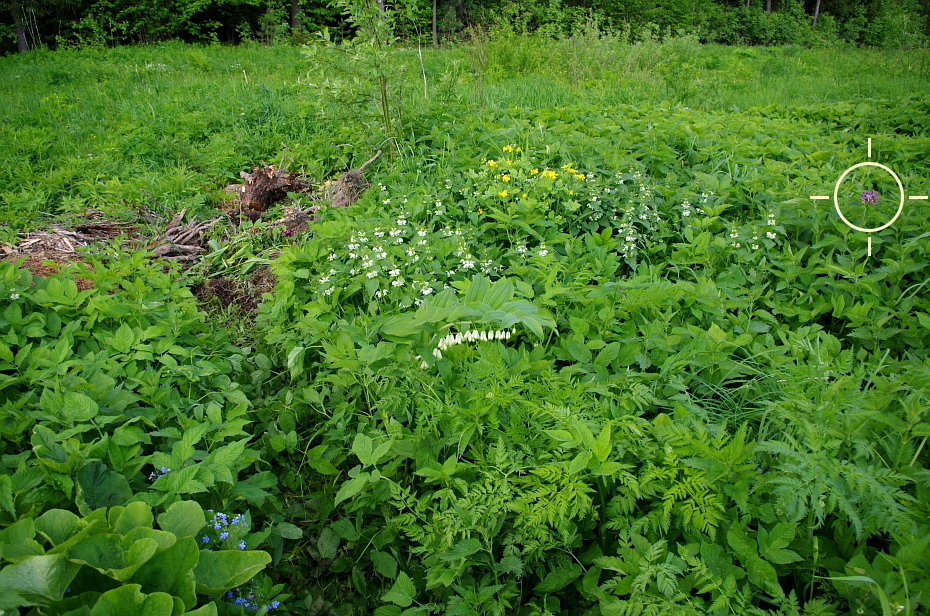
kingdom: Plantae
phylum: Tracheophyta
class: Liliopsida
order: Asparagales
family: Amaryllidaceae
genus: Allium
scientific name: Allium rosenorum
